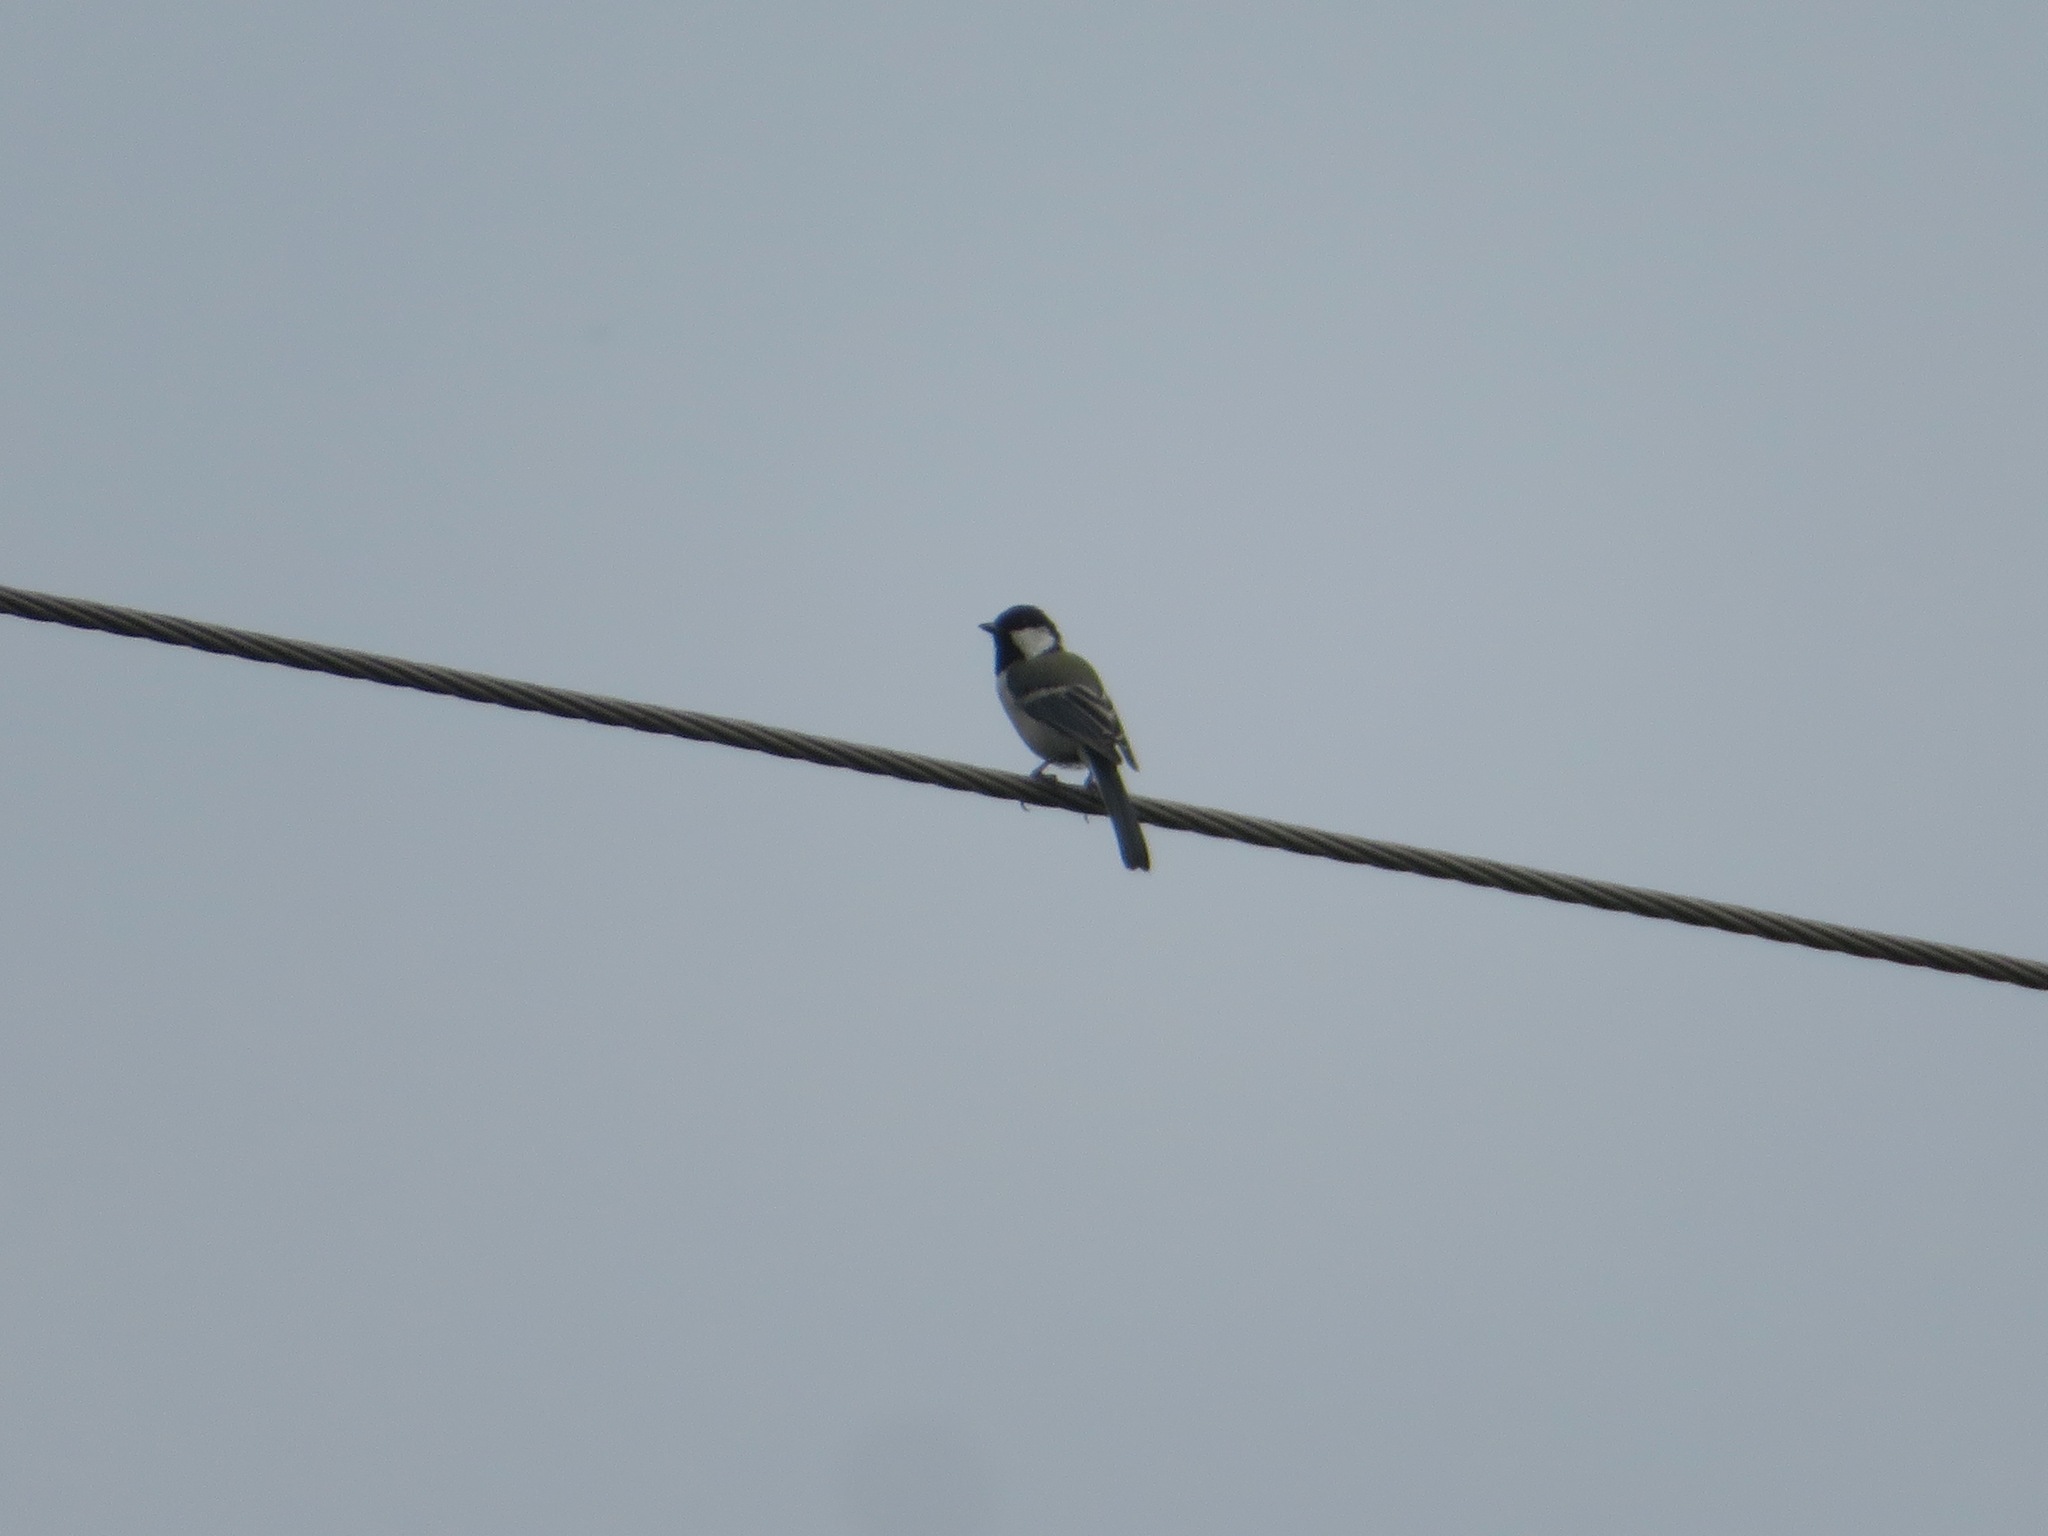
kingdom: Animalia
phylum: Chordata
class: Aves
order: Passeriformes
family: Paridae
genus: Parus
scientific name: Parus minor
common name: Japanese tit
